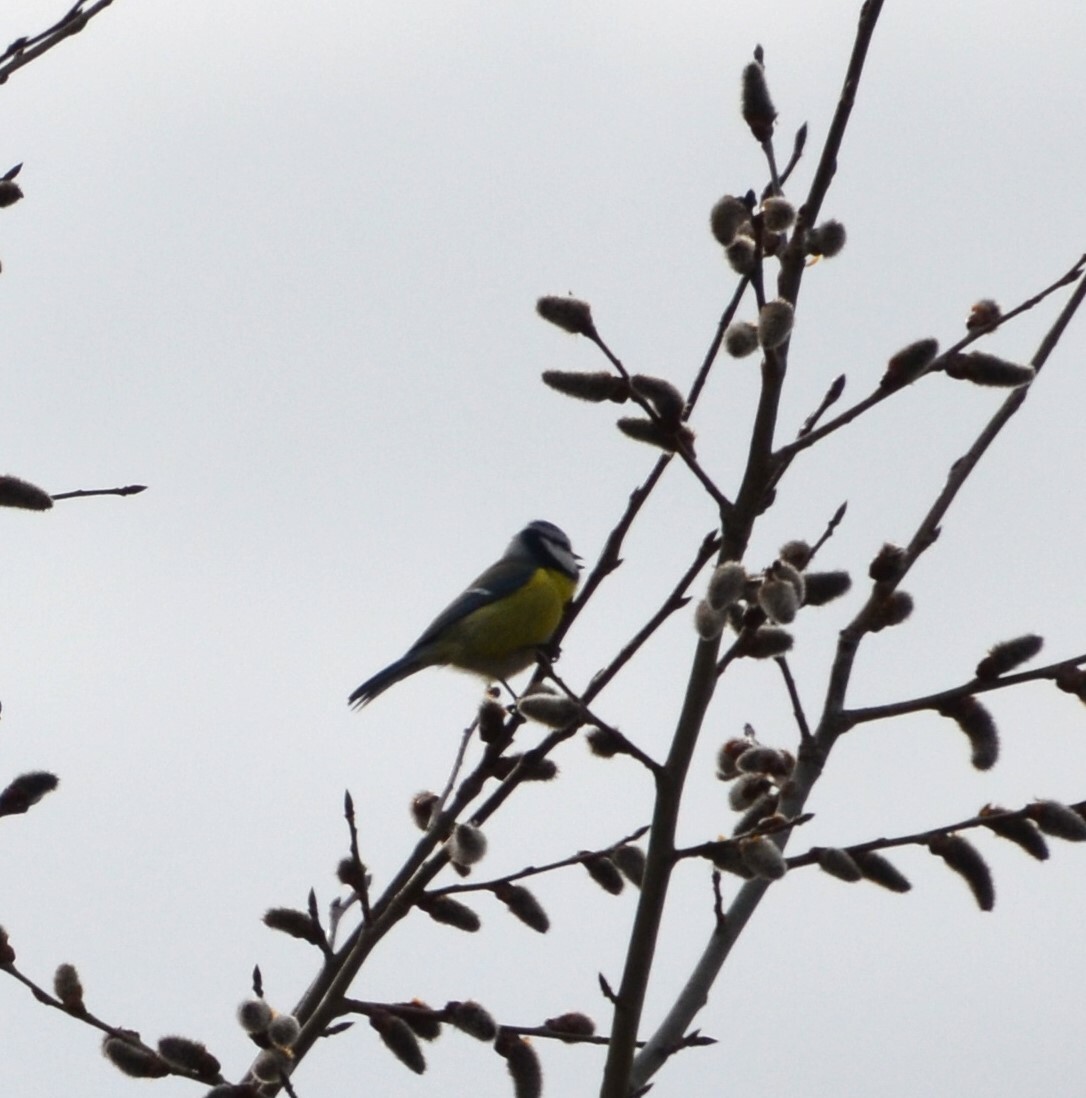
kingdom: Animalia
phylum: Chordata
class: Aves
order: Passeriformes
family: Paridae
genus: Cyanistes
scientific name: Cyanistes caeruleus
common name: Eurasian blue tit
